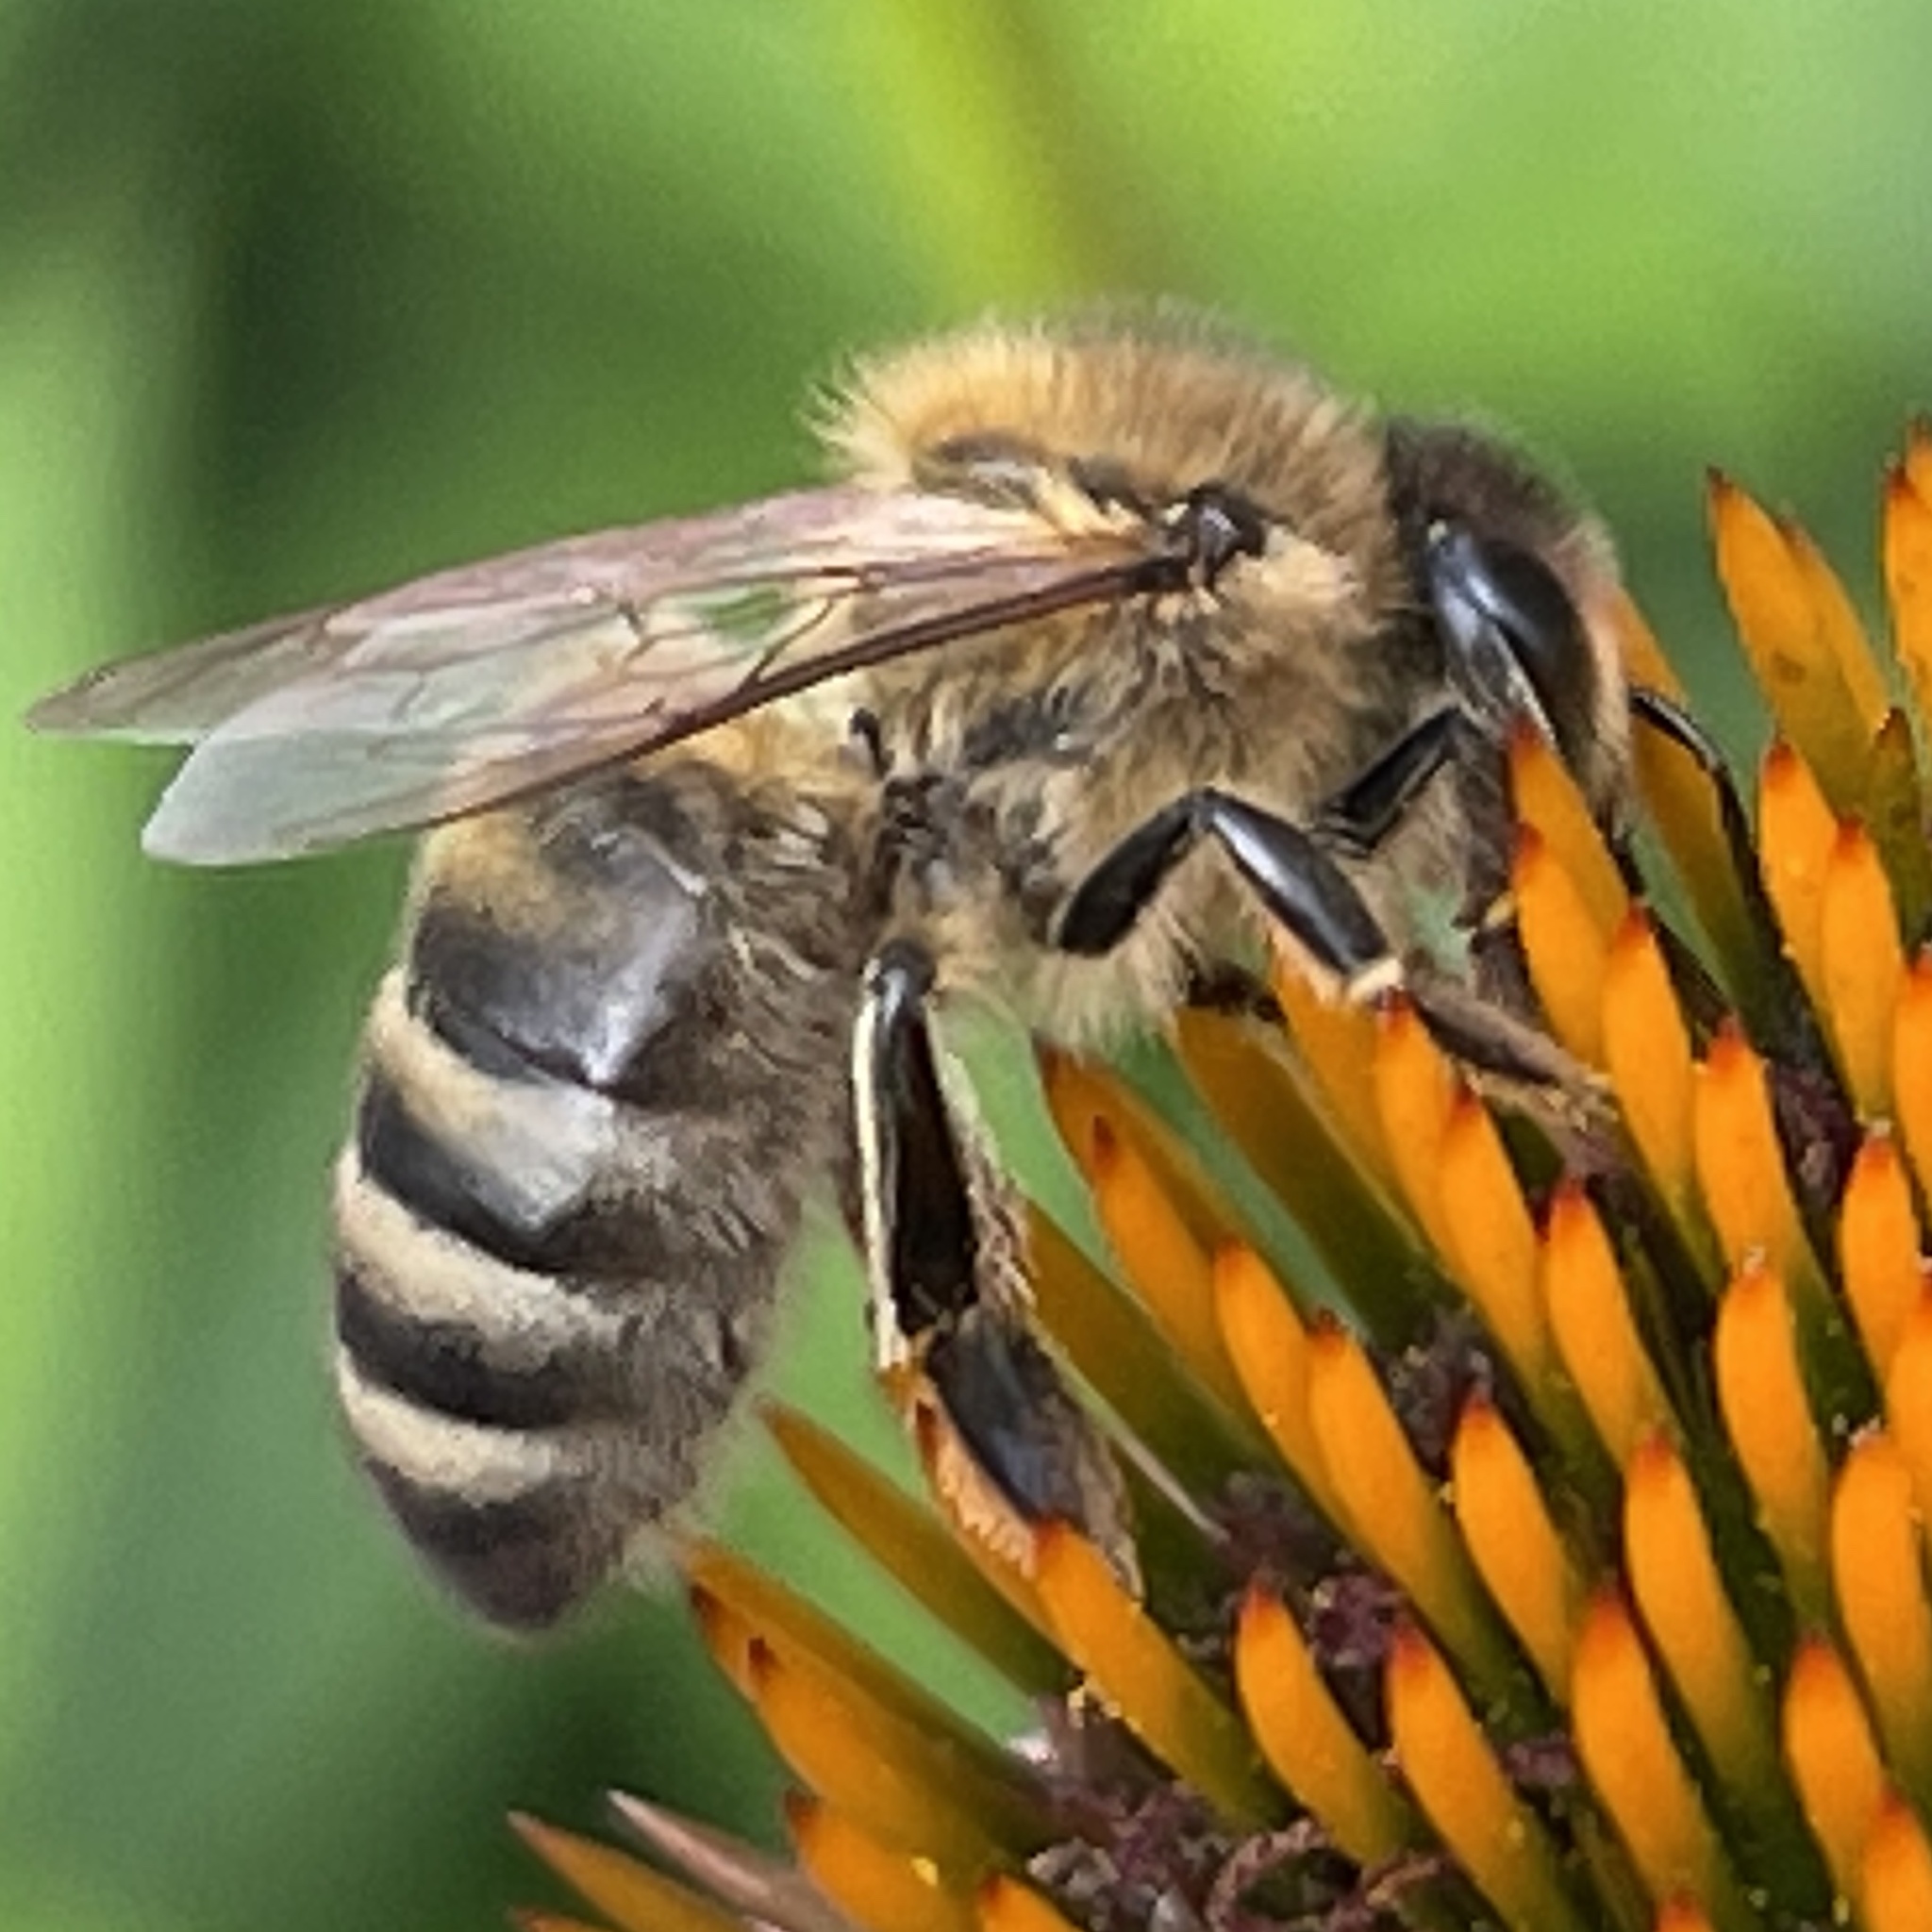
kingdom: Animalia
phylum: Arthropoda
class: Insecta
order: Hymenoptera
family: Apidae
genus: Apis
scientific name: Apis mellifera
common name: Honey bee
